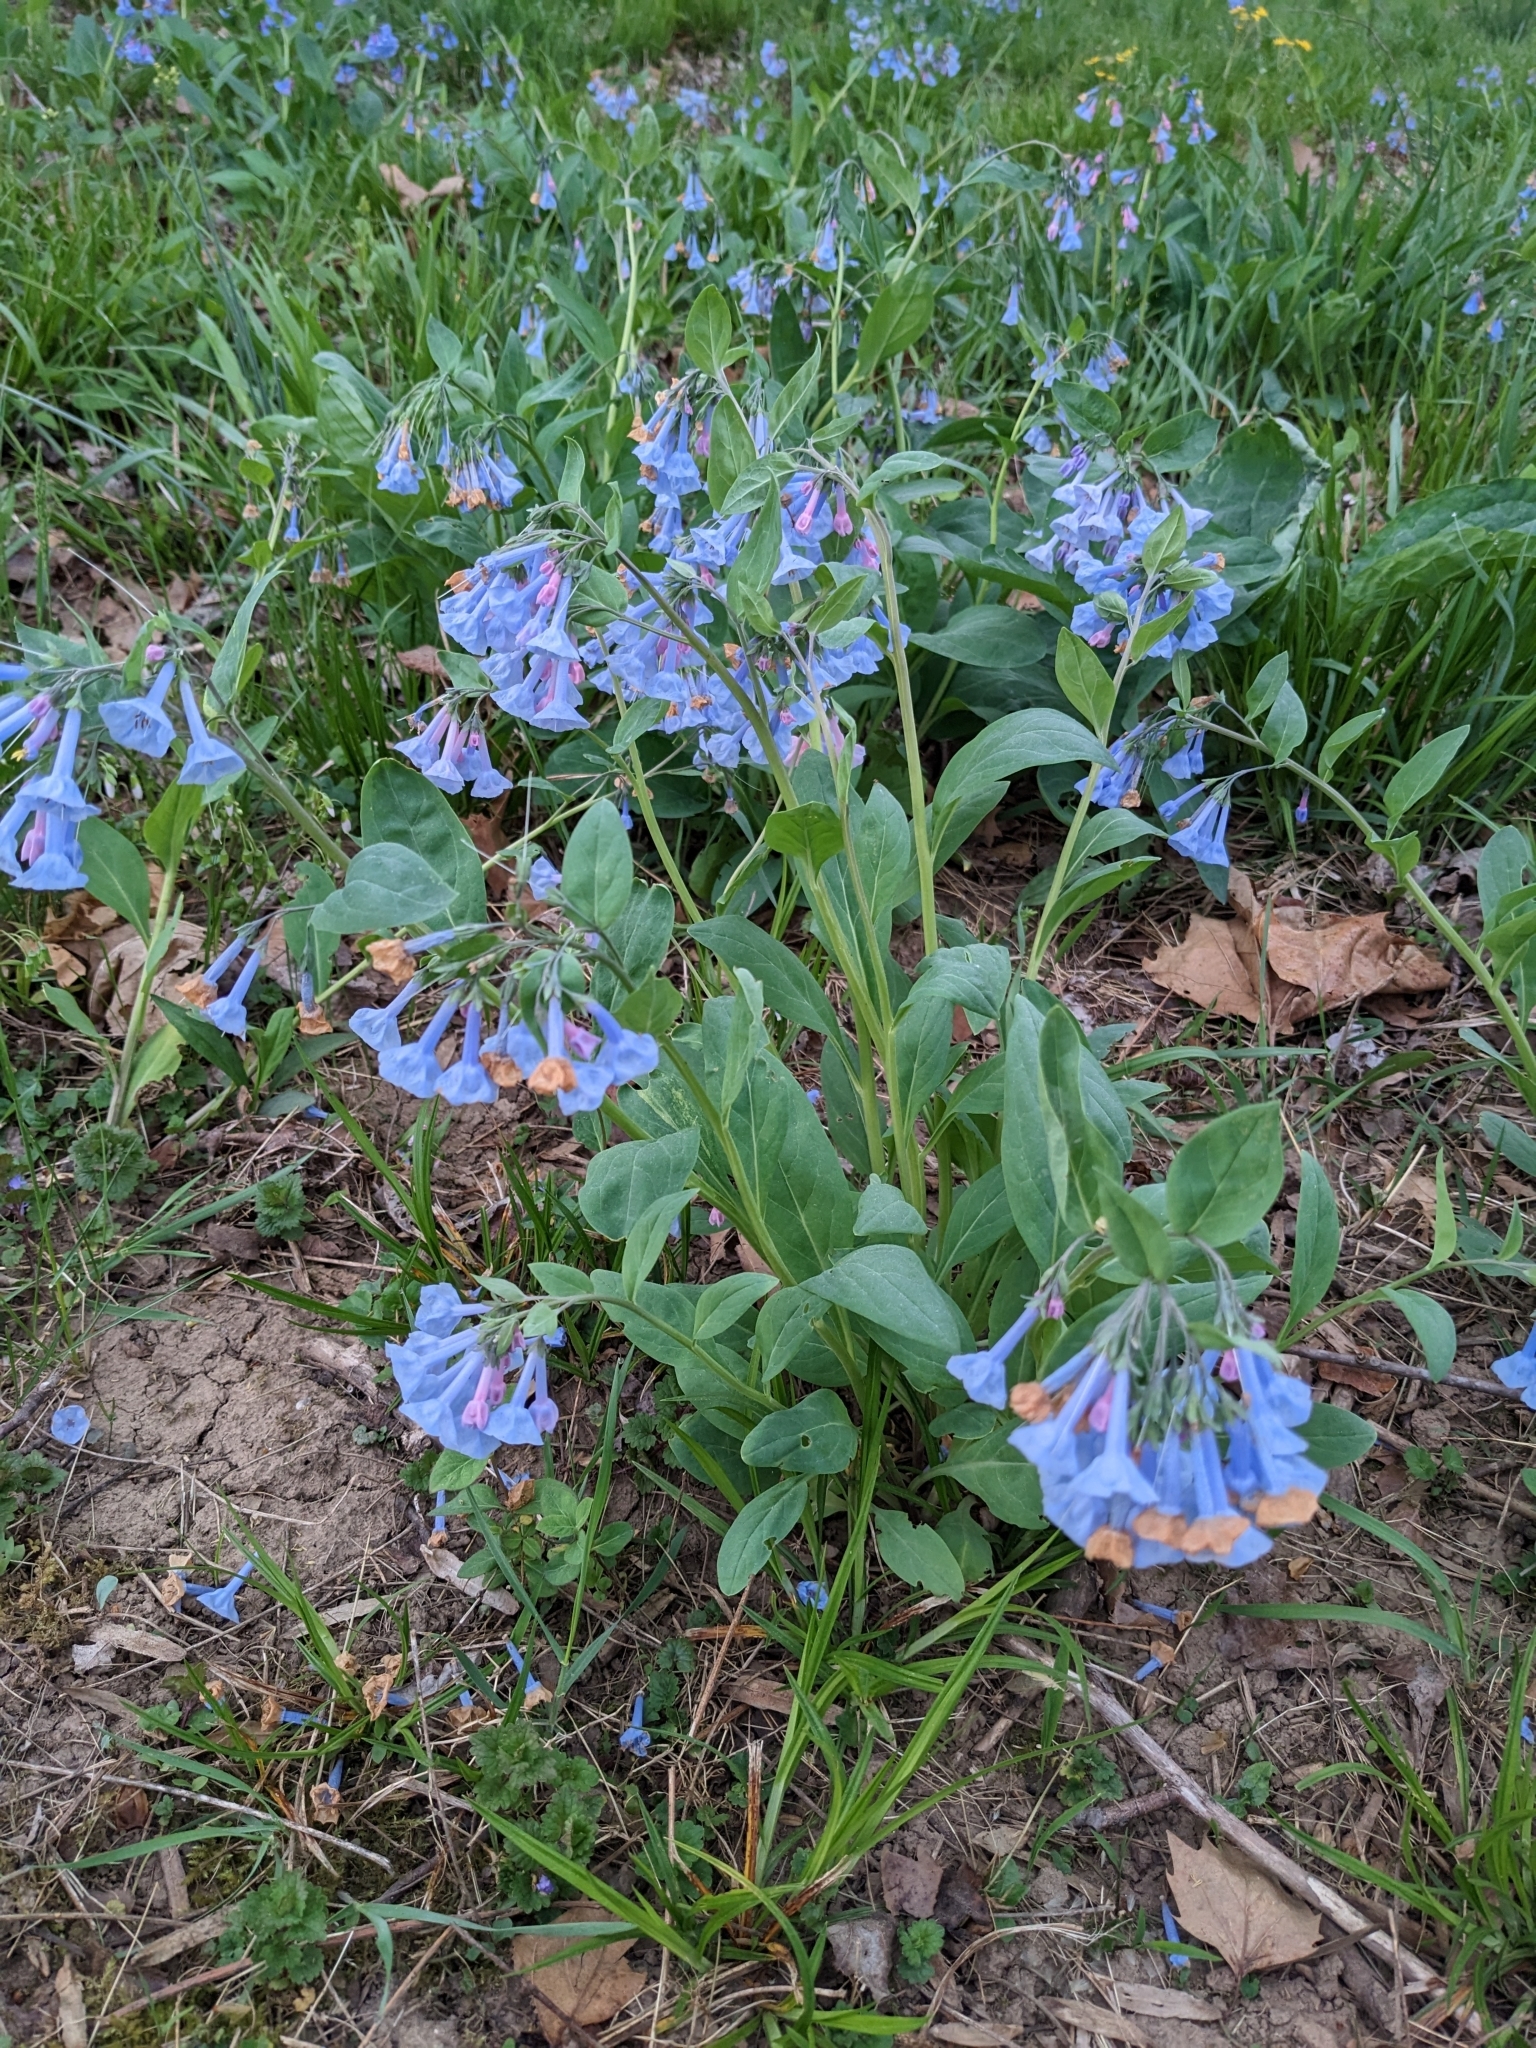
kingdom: Plantae
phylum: Tracheophyta
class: Magnoliopsida
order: Boraginales
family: Boraginaceae
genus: Mertensia
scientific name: Mertensia virginica
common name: Virginia bluebells
